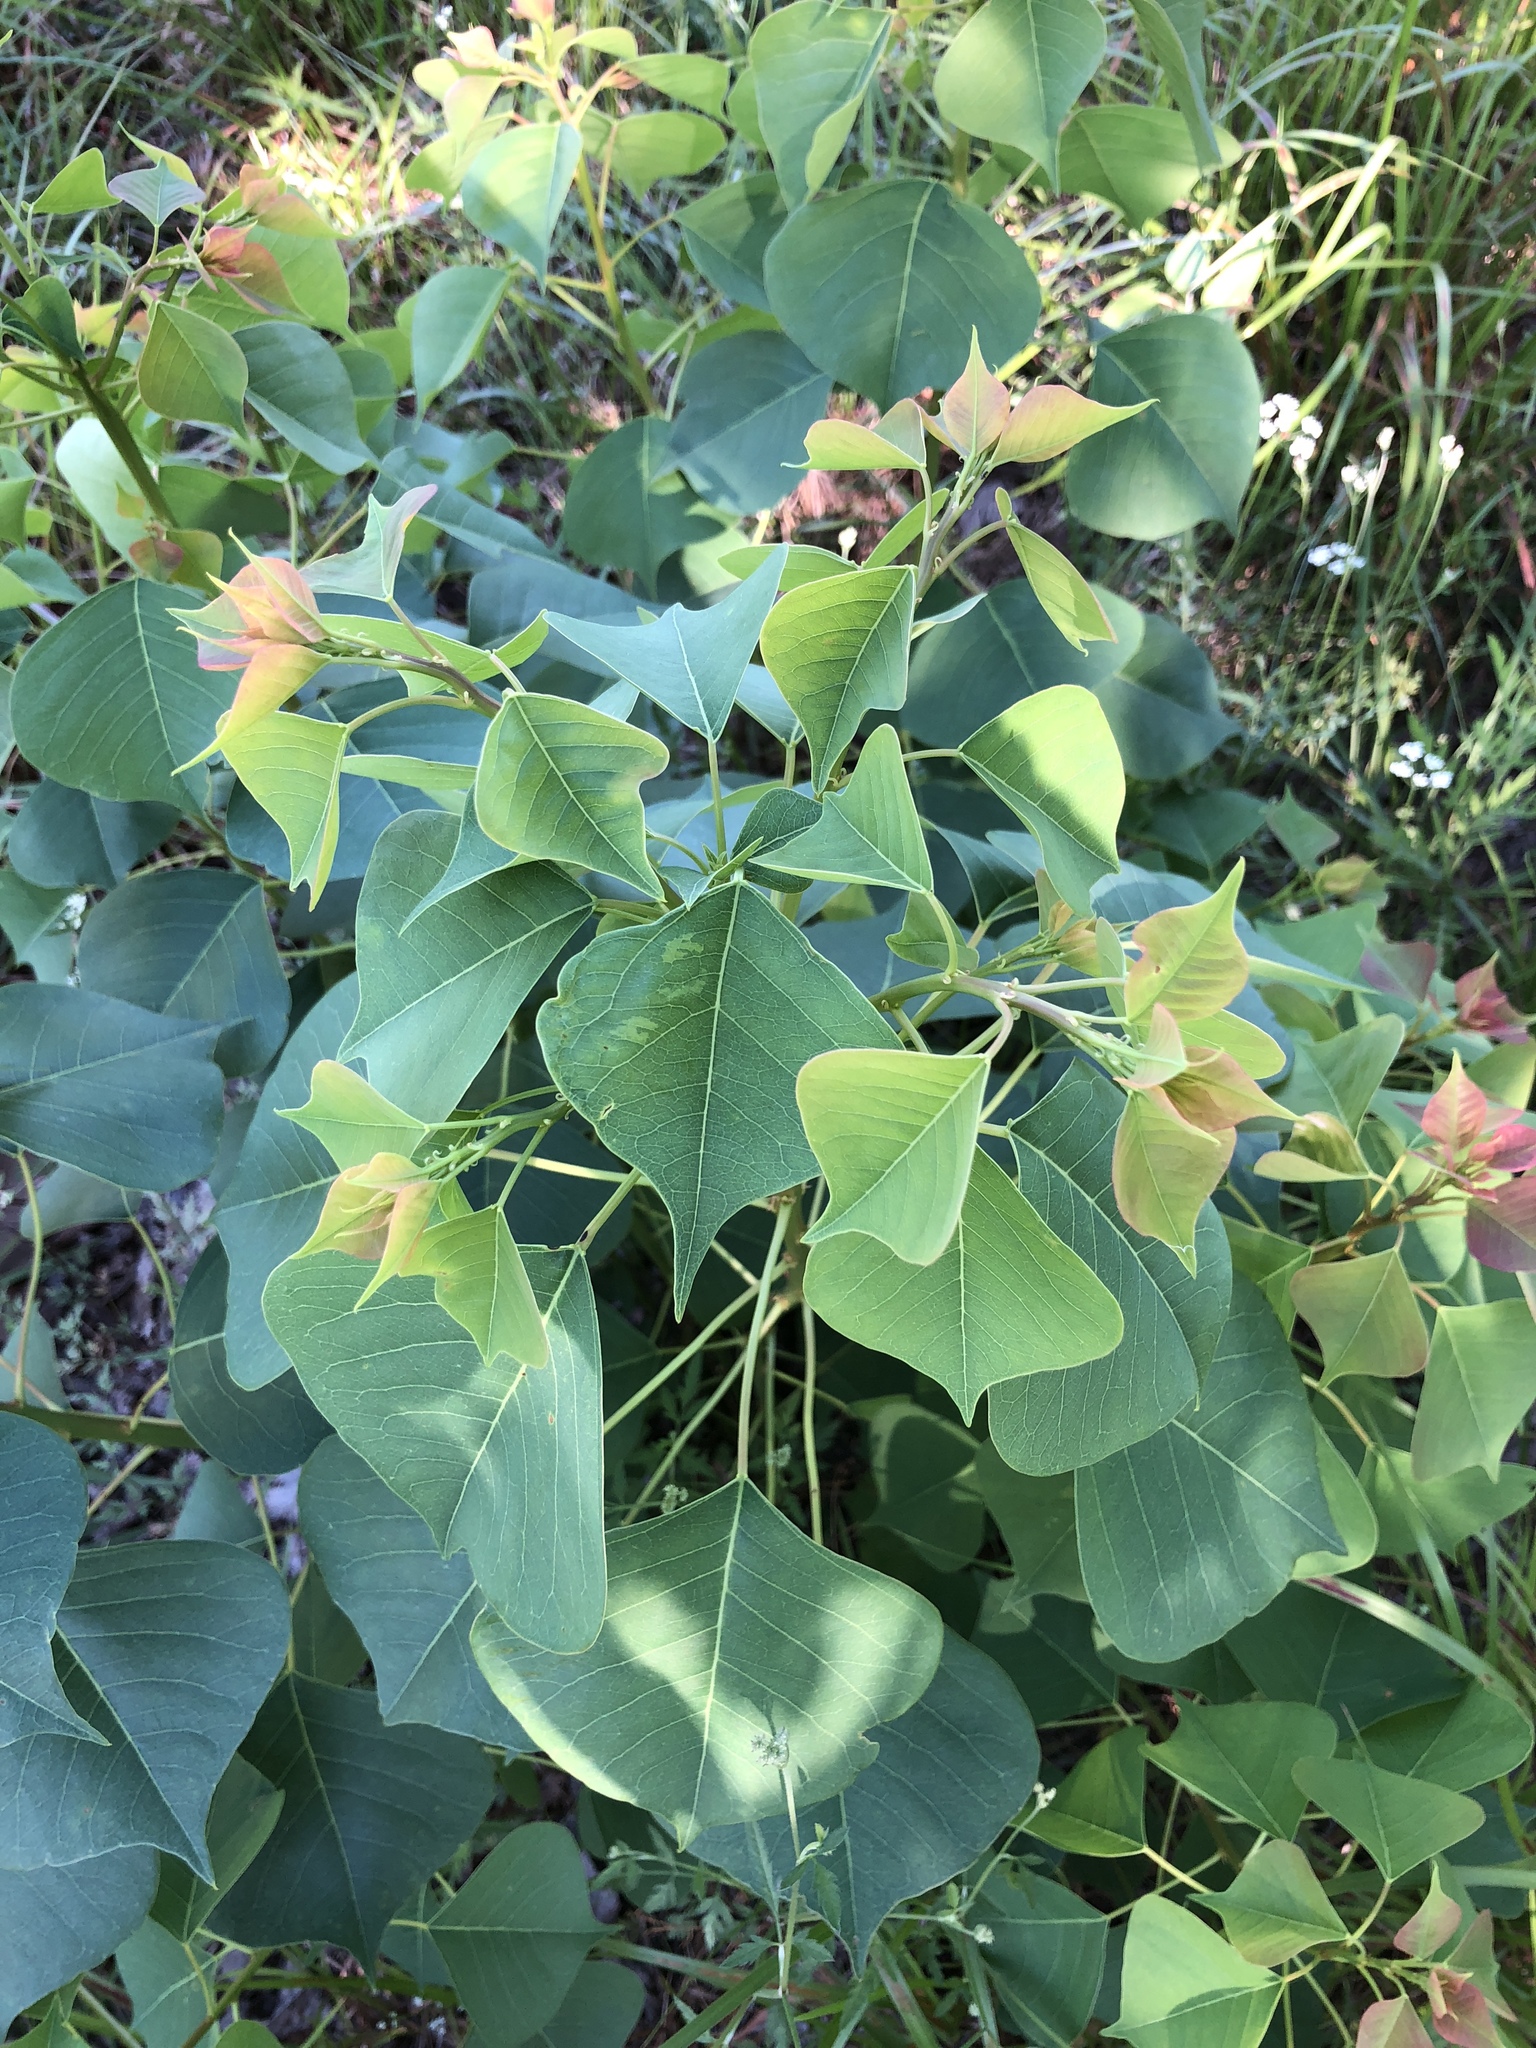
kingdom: Plantae
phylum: Tracheophyta
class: Magnoliopsida
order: Malpighiales
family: Euphorbiaceae
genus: Triadica
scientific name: Triadica sebifera
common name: Chinese tallow
